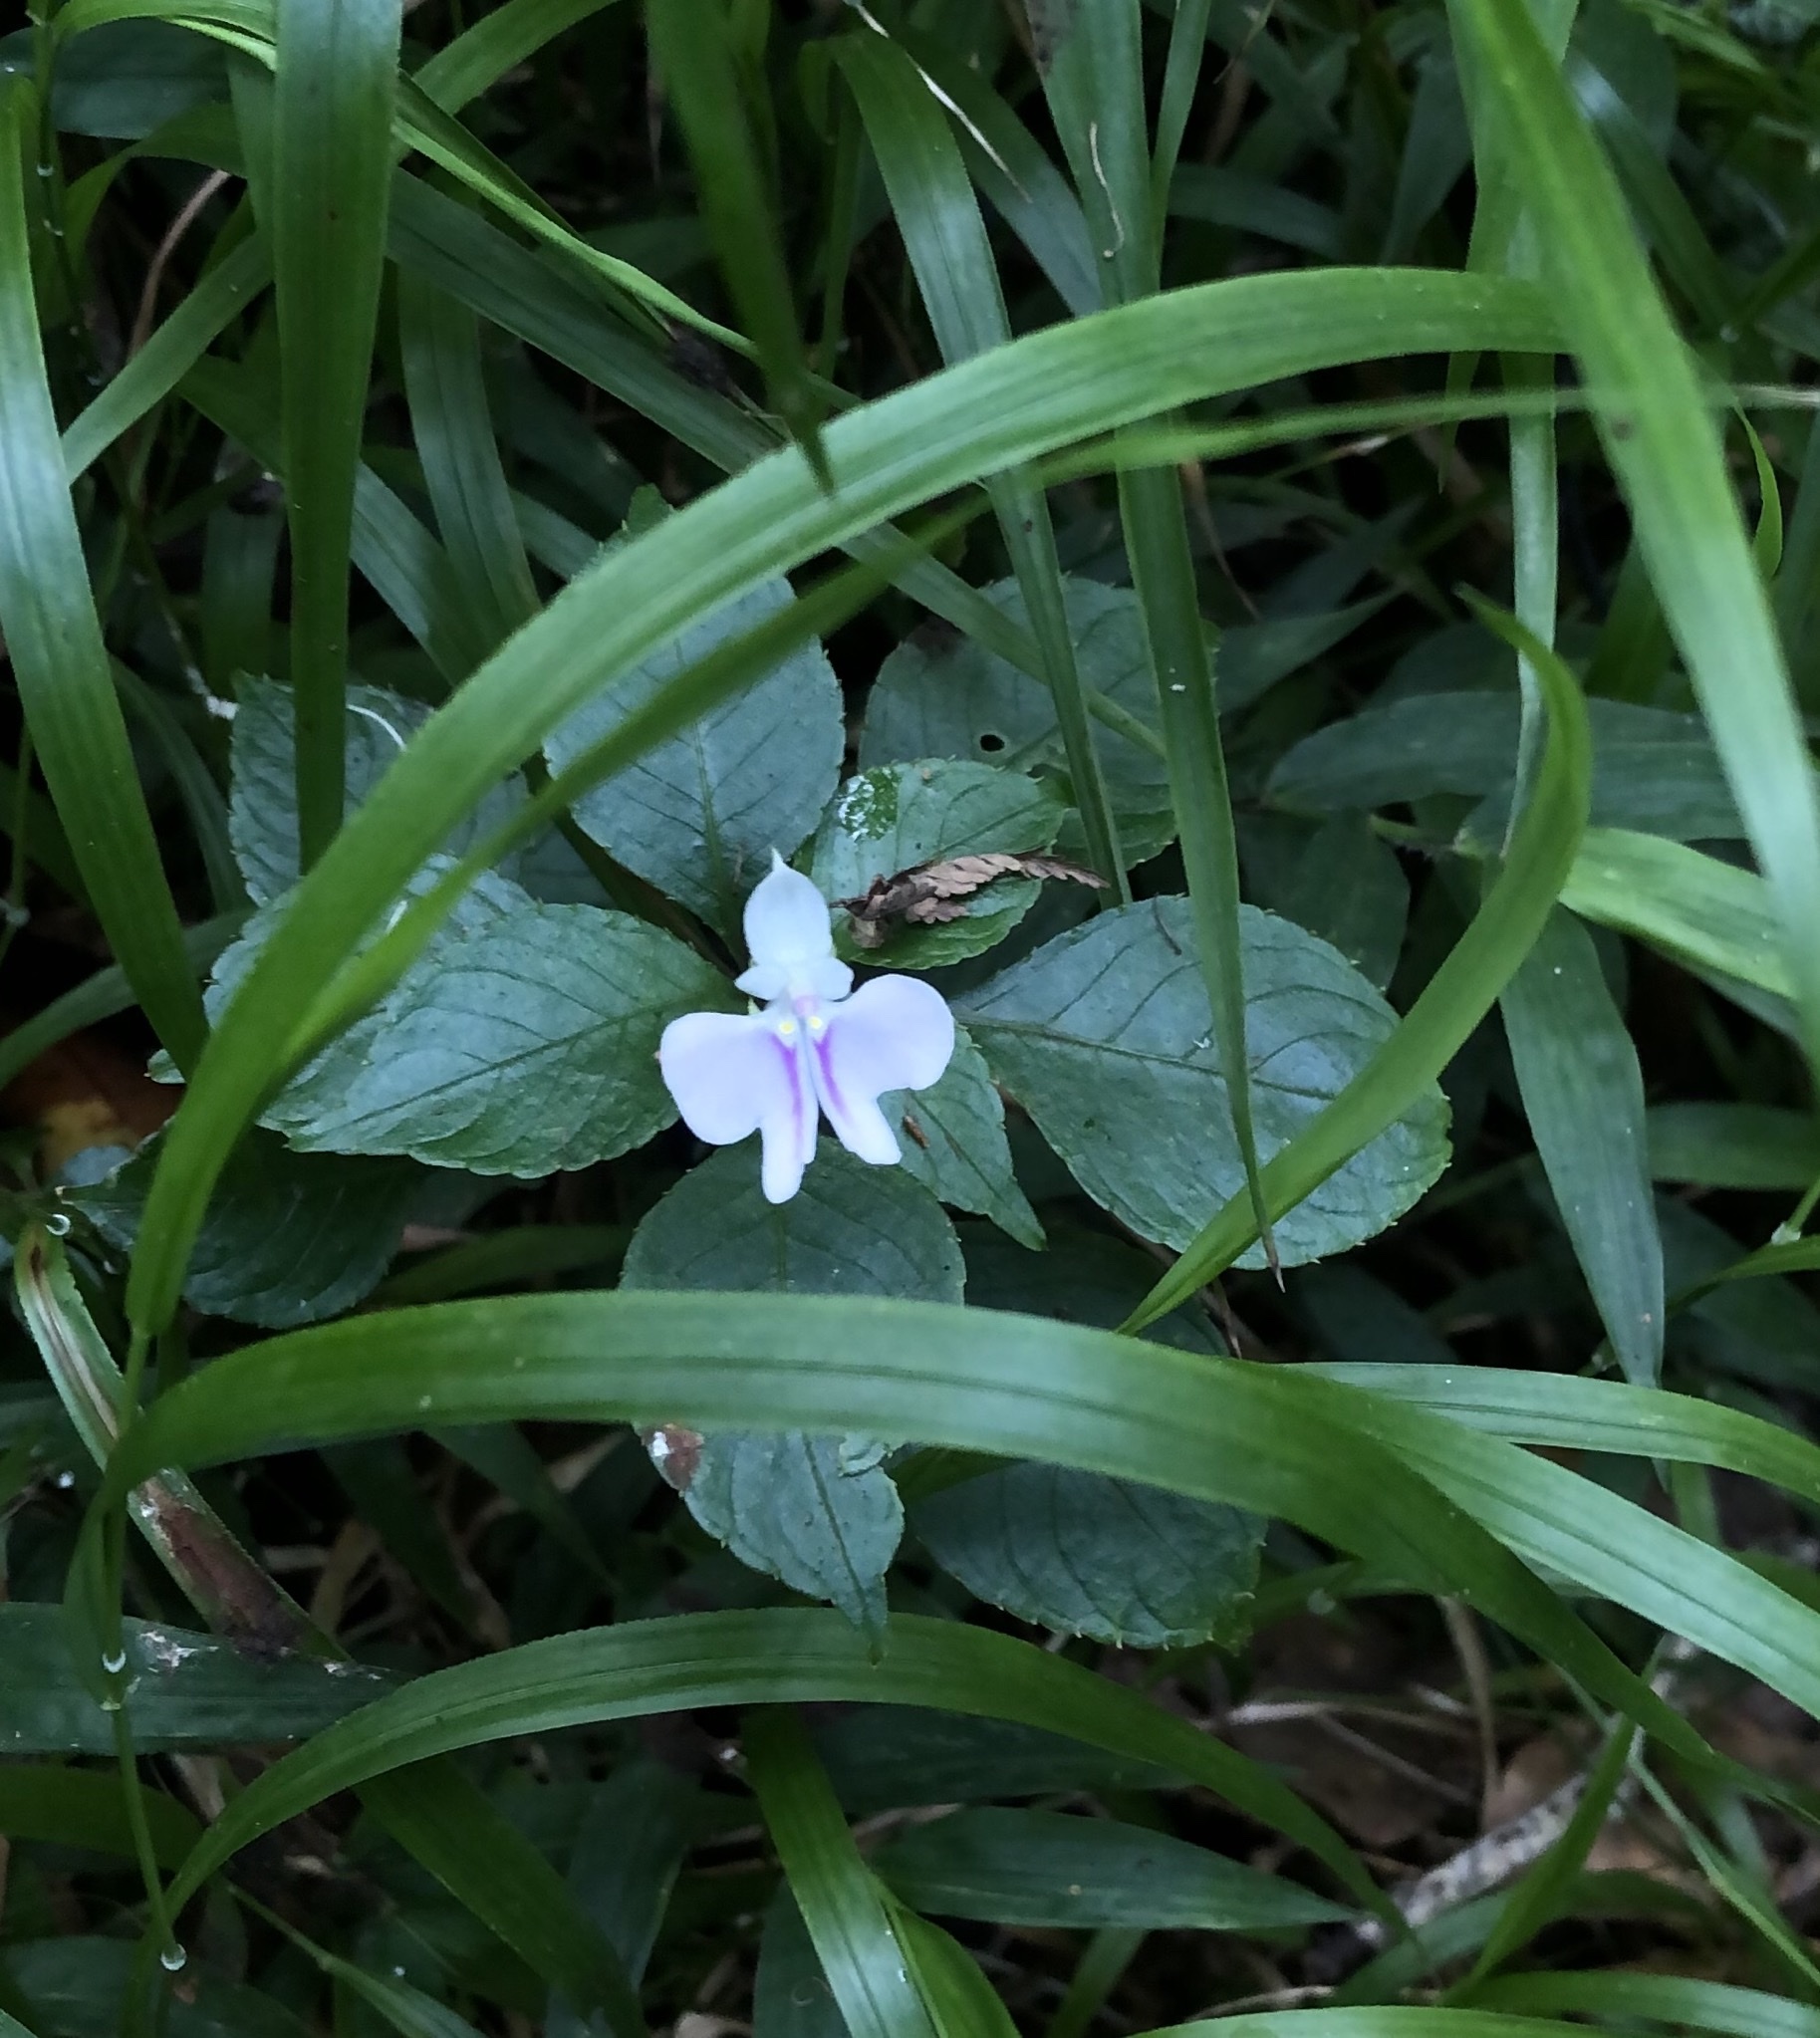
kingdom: Plantae
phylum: Tracheophyta
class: Magnoliopsida
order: Ericales
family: Balsaminaceae
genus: Impatiens
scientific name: Impatiens hochstetteri
